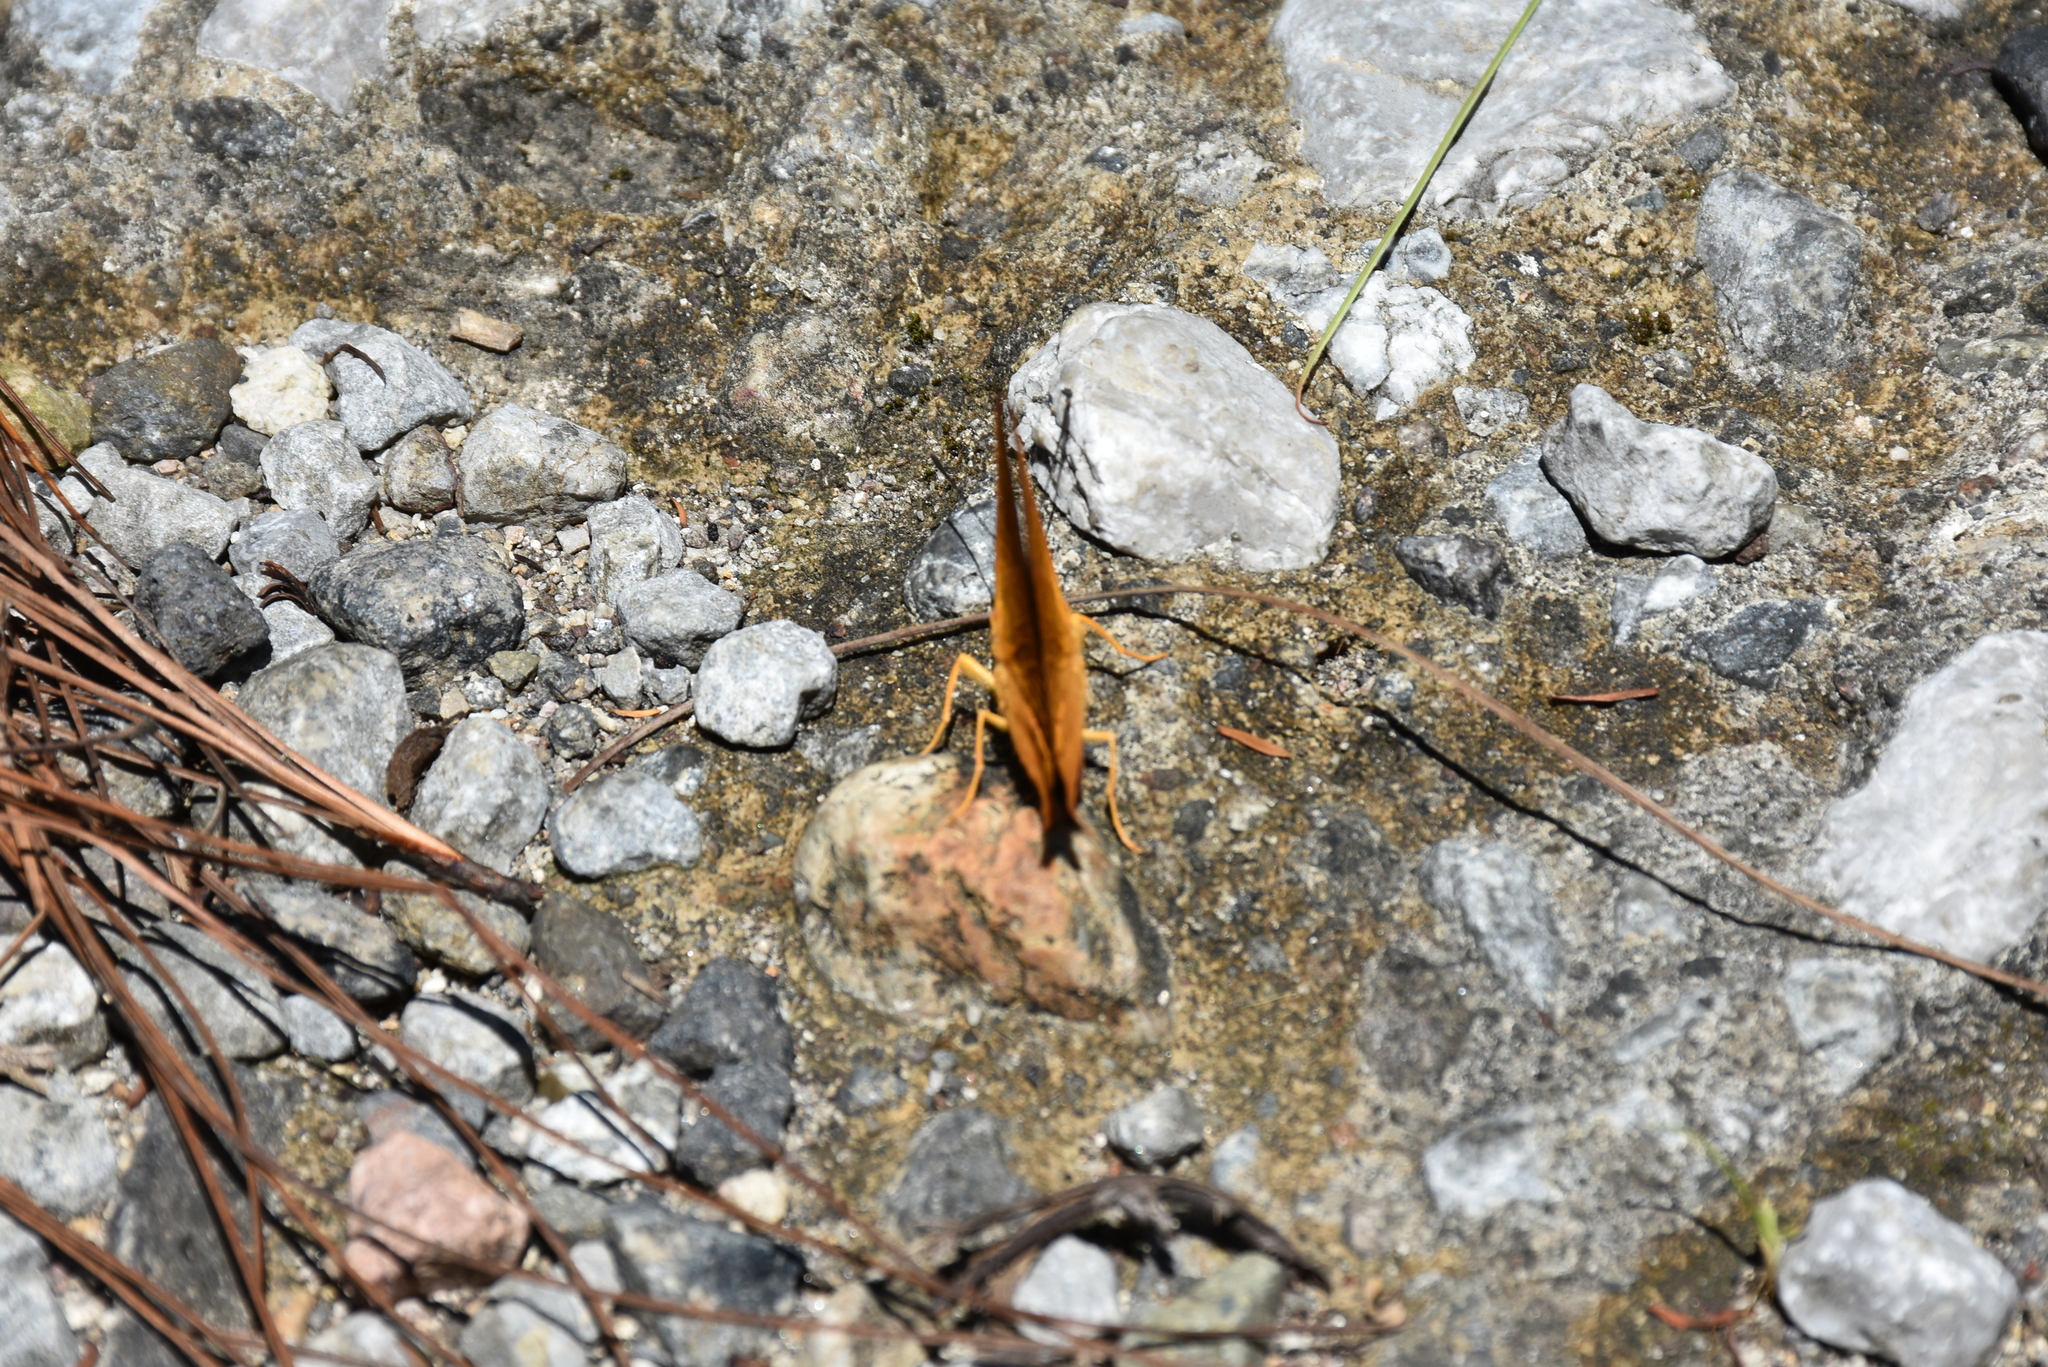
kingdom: Animalia
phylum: Arthropoda
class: Insecta
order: Lepidoptera
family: Lycaenidae
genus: Emesis
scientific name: Emesis lucinda
